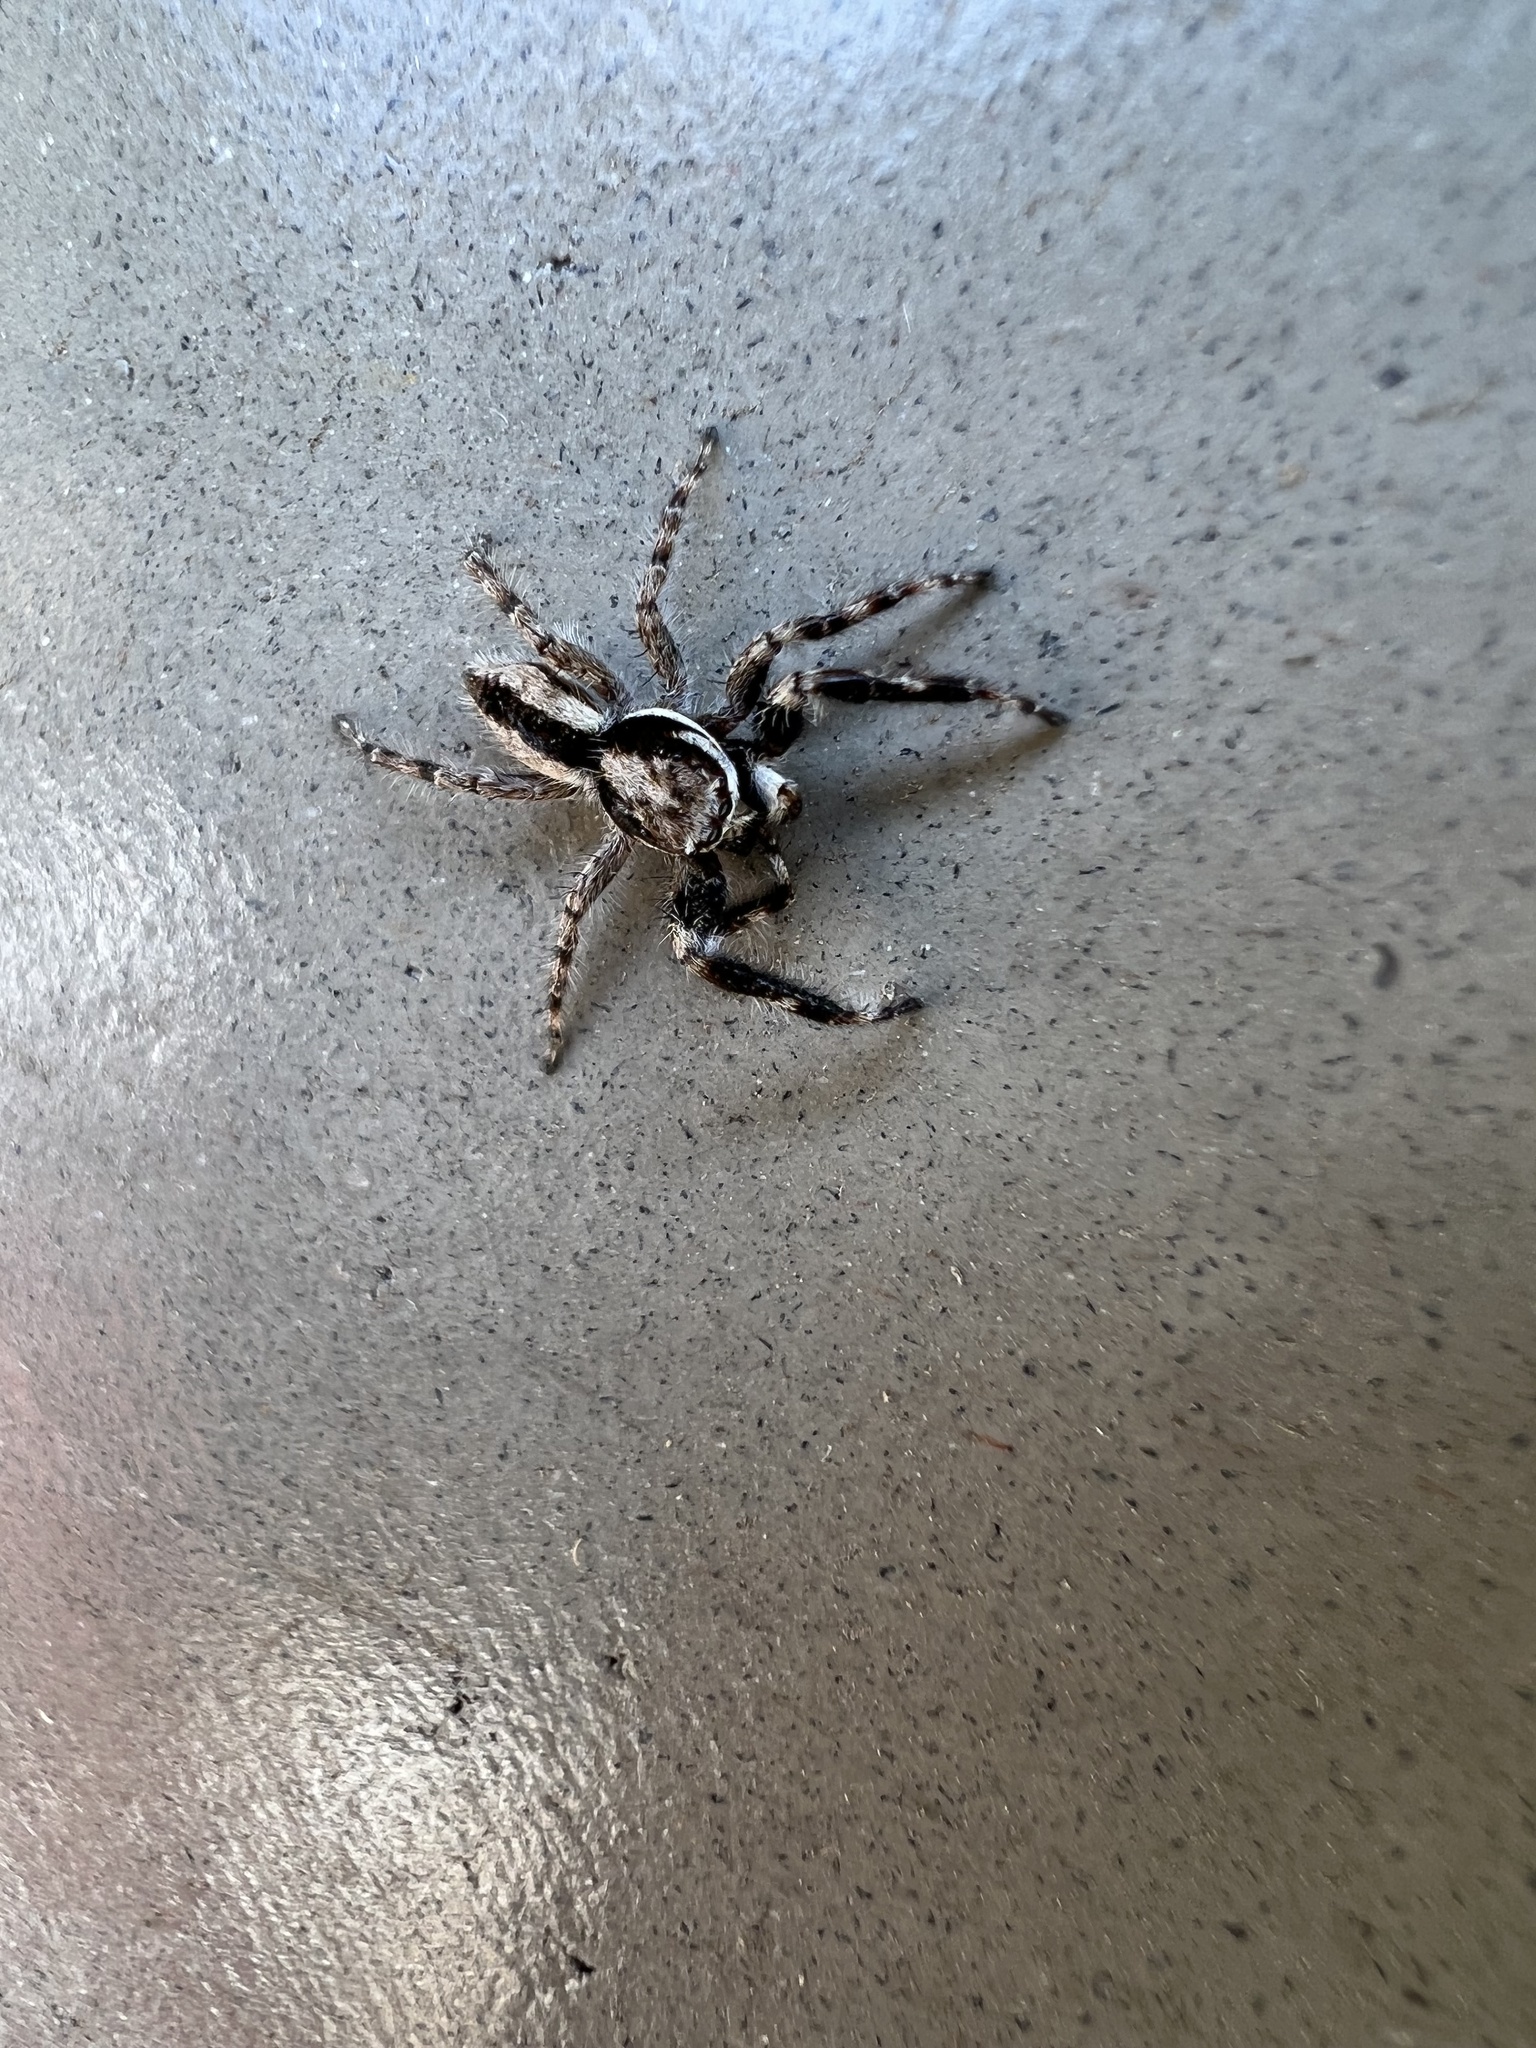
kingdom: Animalia
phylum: Arthropoda
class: Arachnida
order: Araneae
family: Salticidae
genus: Menemerus
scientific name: Menemerus bivittatus
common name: Gray wall jumper
